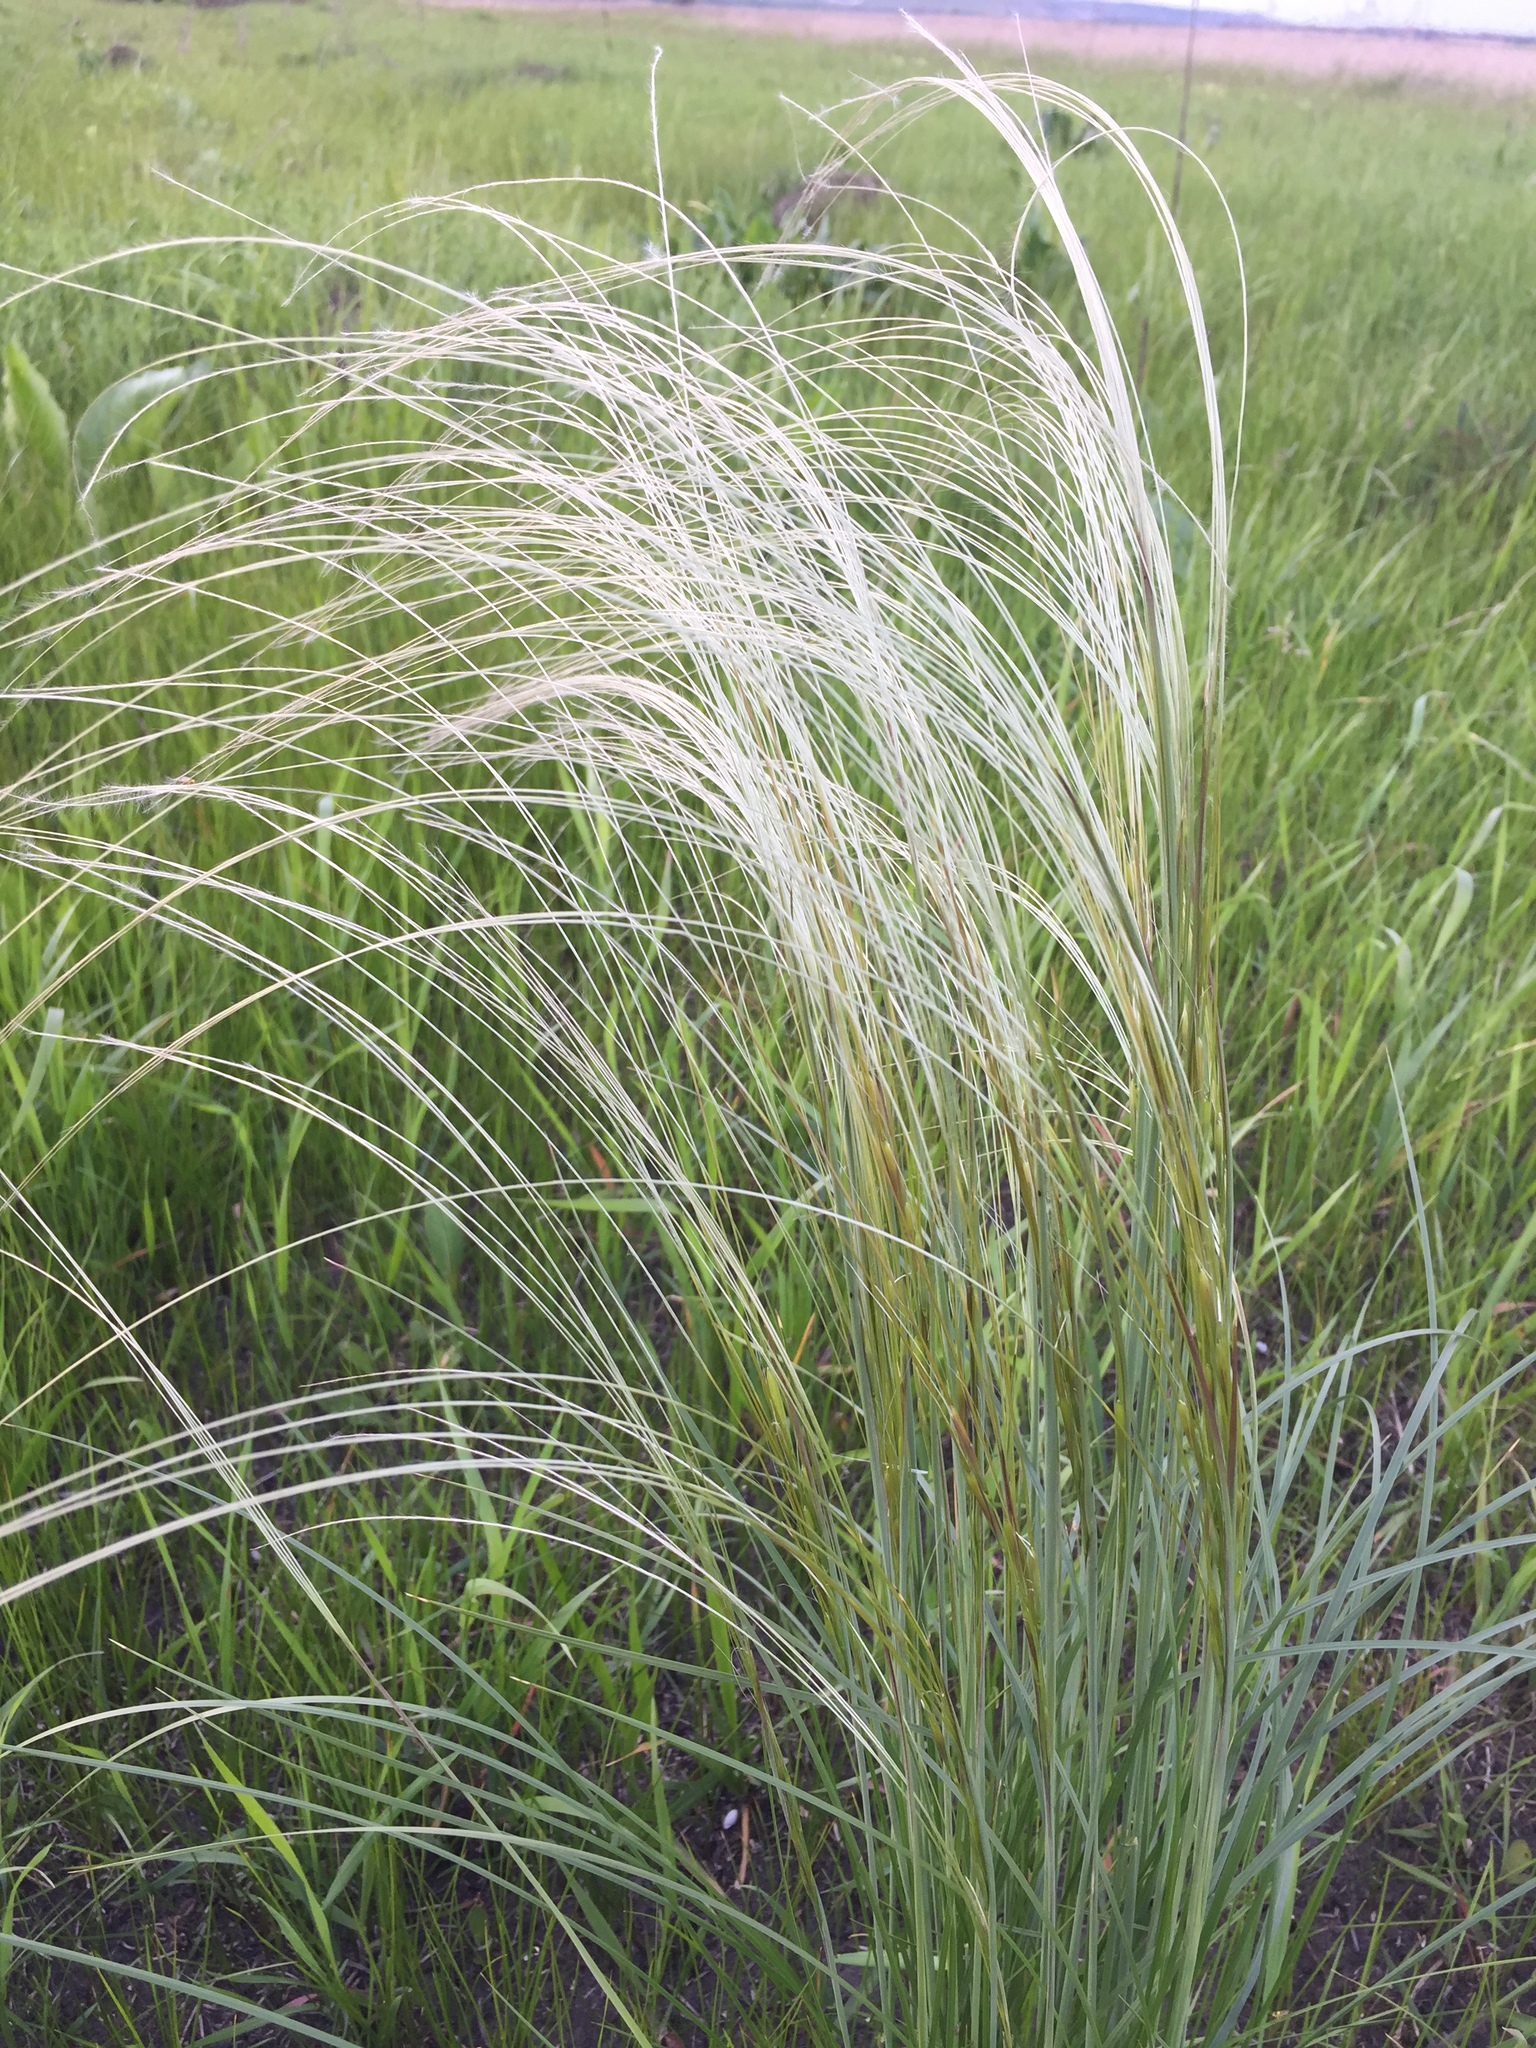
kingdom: Plantae
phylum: Tracheophyta
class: Liliopsida
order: Poales
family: Poaceae
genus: Stipa
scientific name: Stipa pennata
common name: European feather grass
